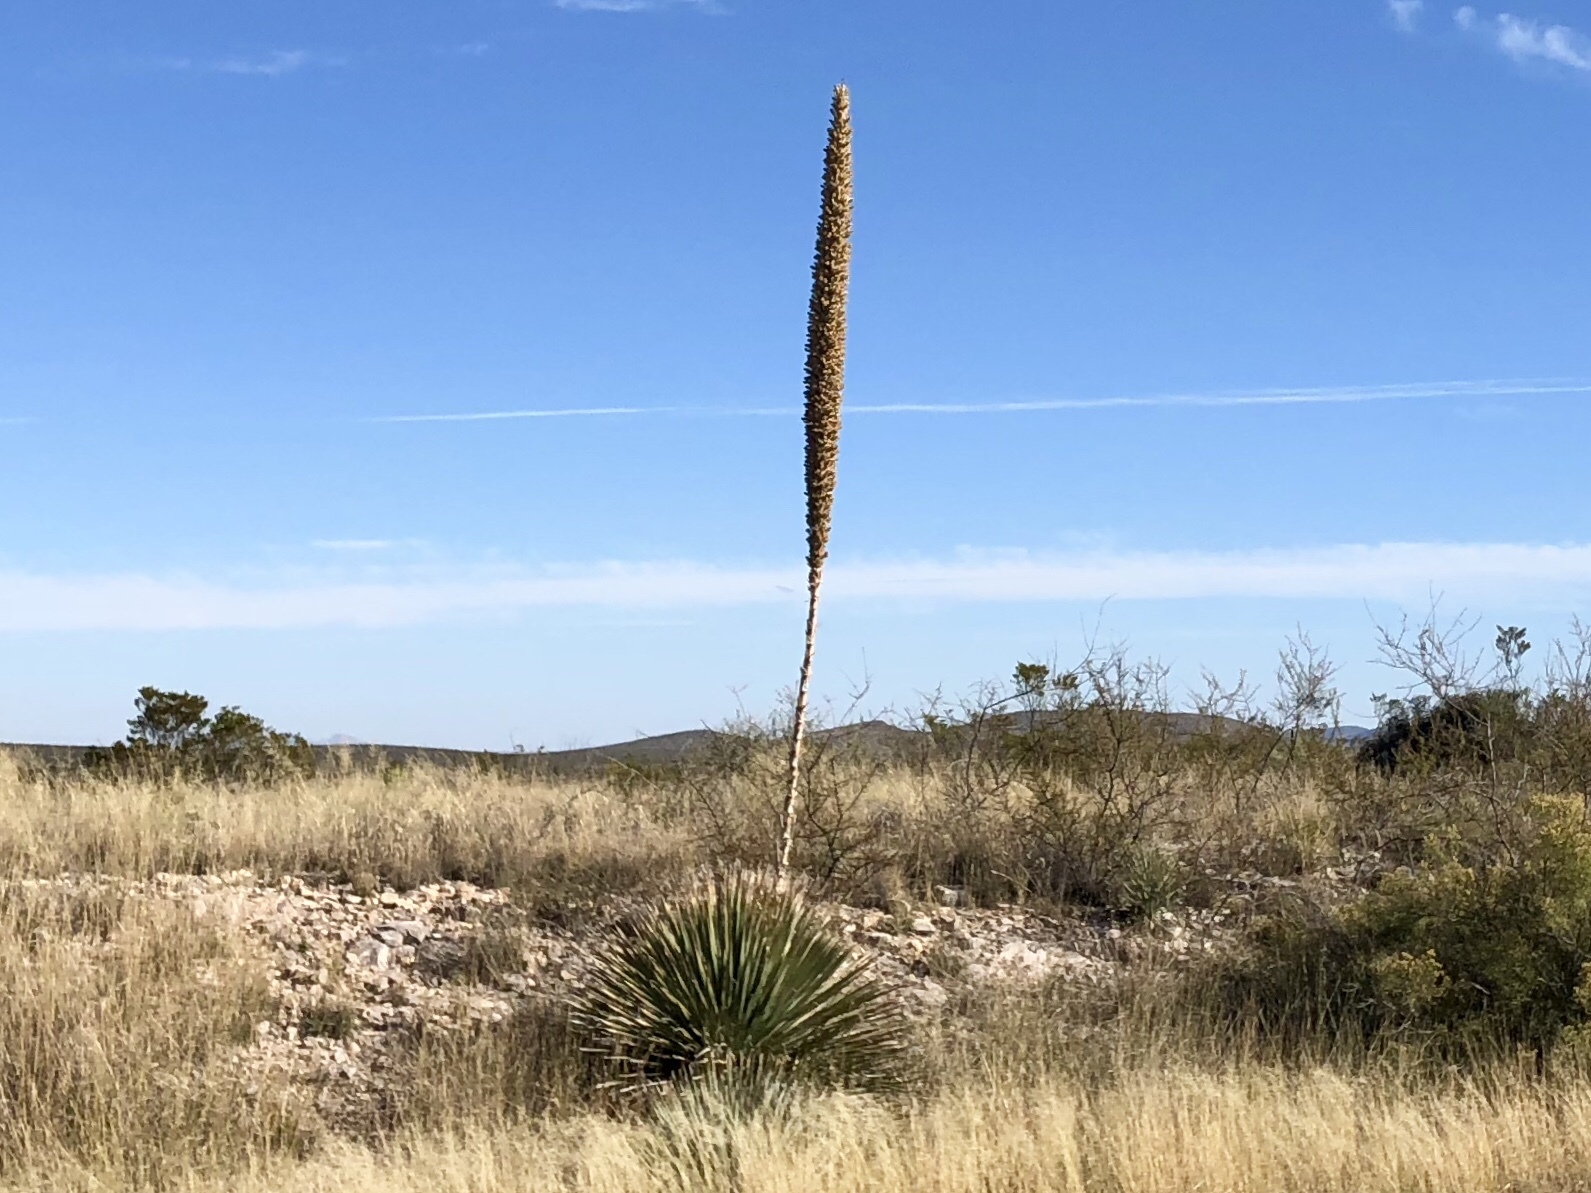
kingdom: Plantae
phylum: Tracheophyta
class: Liliopsida
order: Asparagales
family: Asparagaceae
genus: Dasylirion
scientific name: Dasylirion wheeleri
